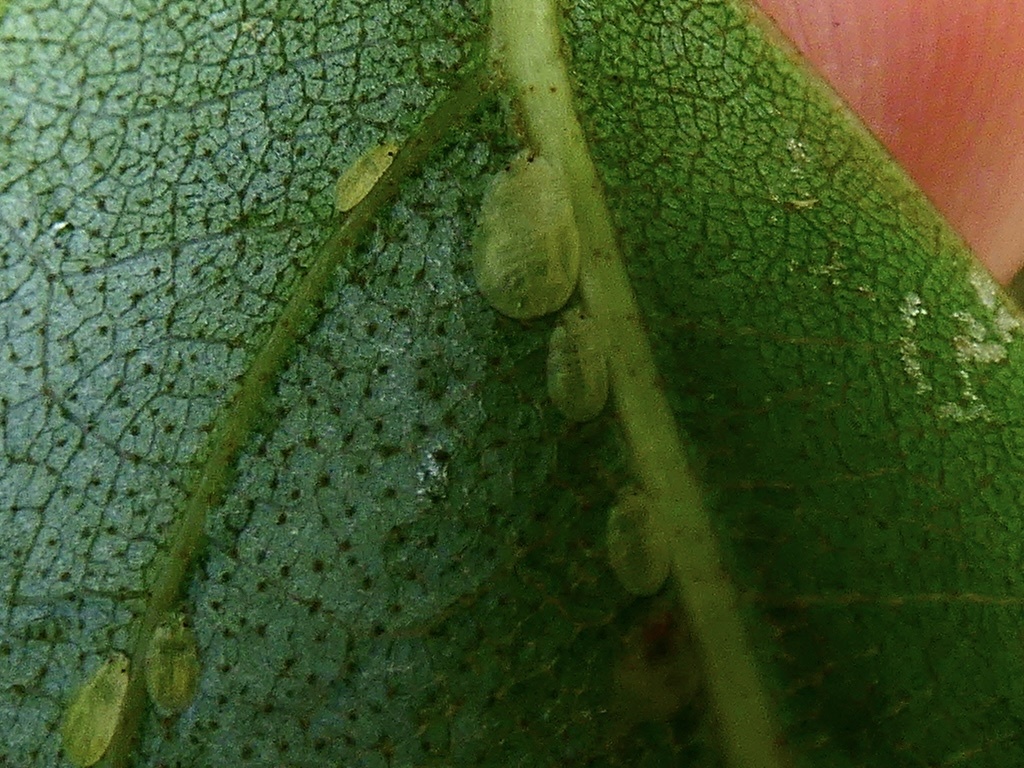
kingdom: Animalia
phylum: Arthropoda
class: Insecta
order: Hemiptera
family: Aphididae
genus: Crypturaphis
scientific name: Crypturaphis grassii
